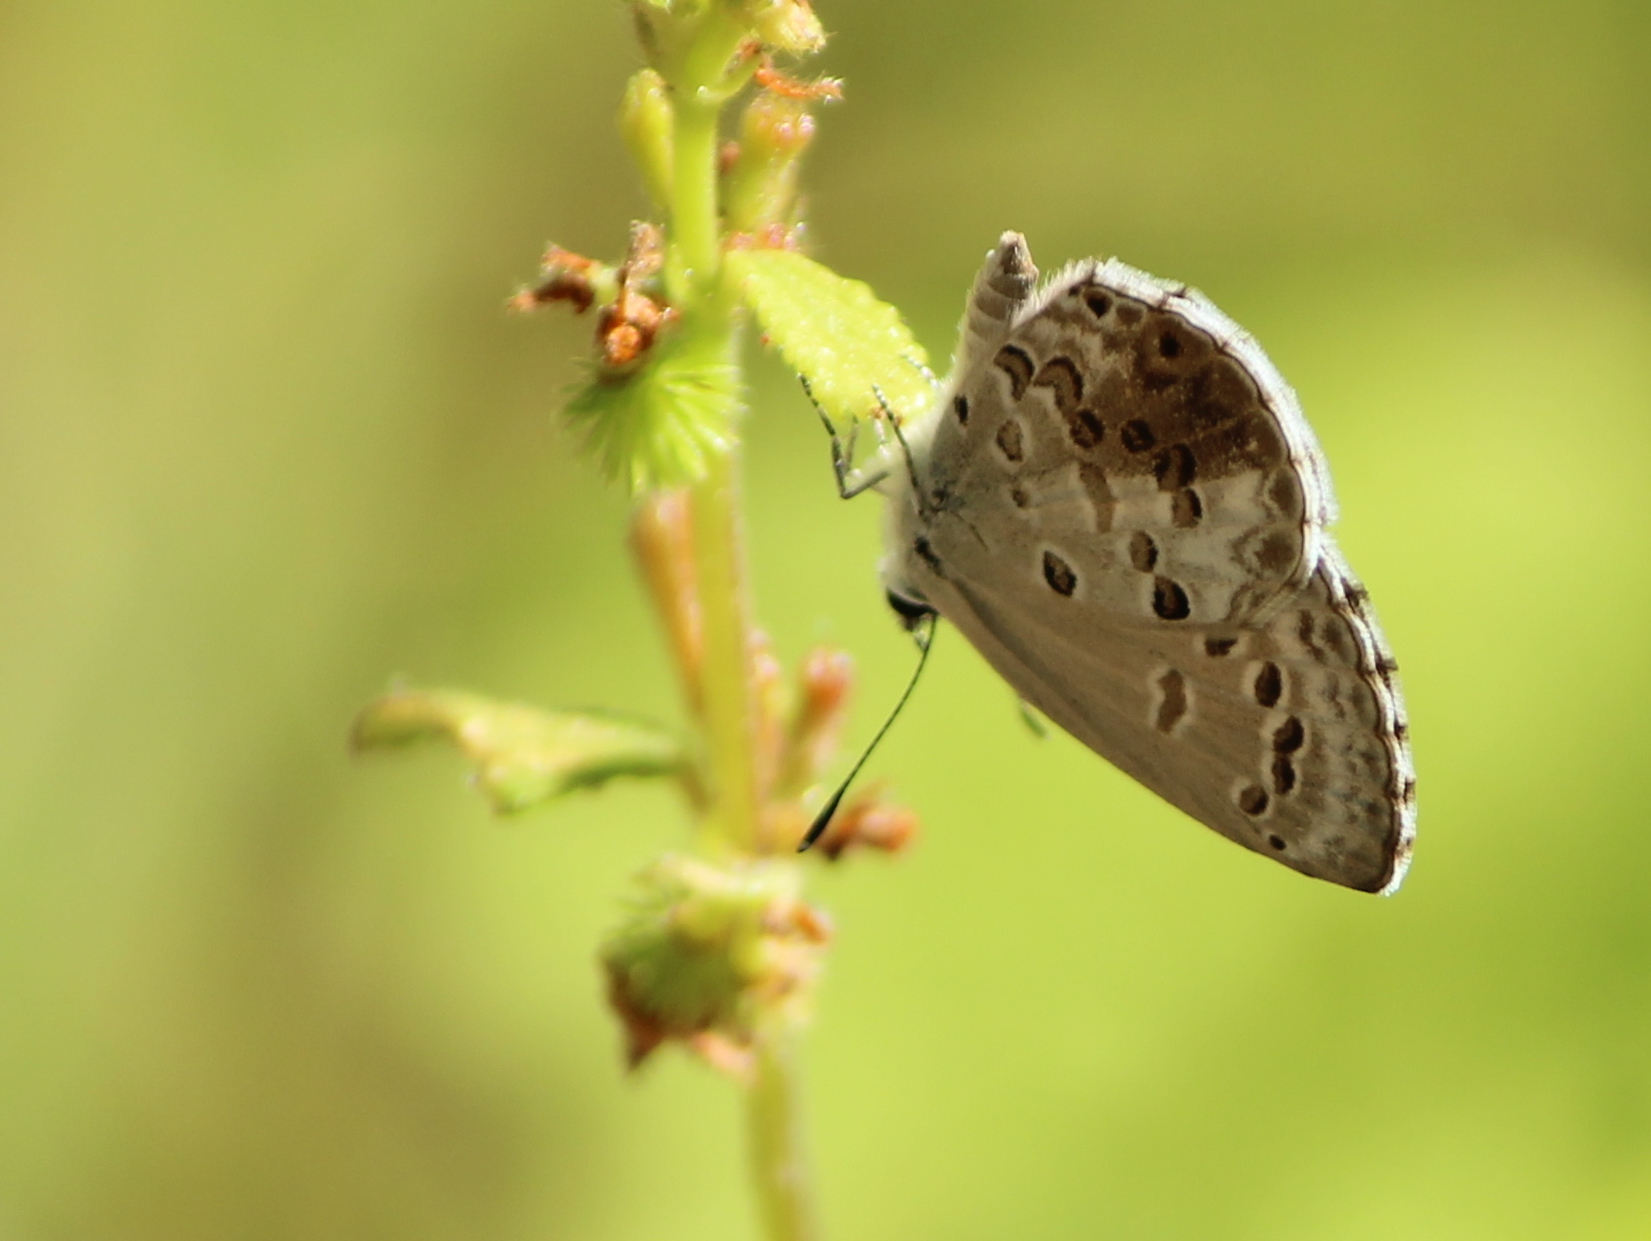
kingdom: Animalia
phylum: Arthropoda
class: Insecta
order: Lepidoptera
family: Lycaenidae
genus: Chilades
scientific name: Chilades laius
